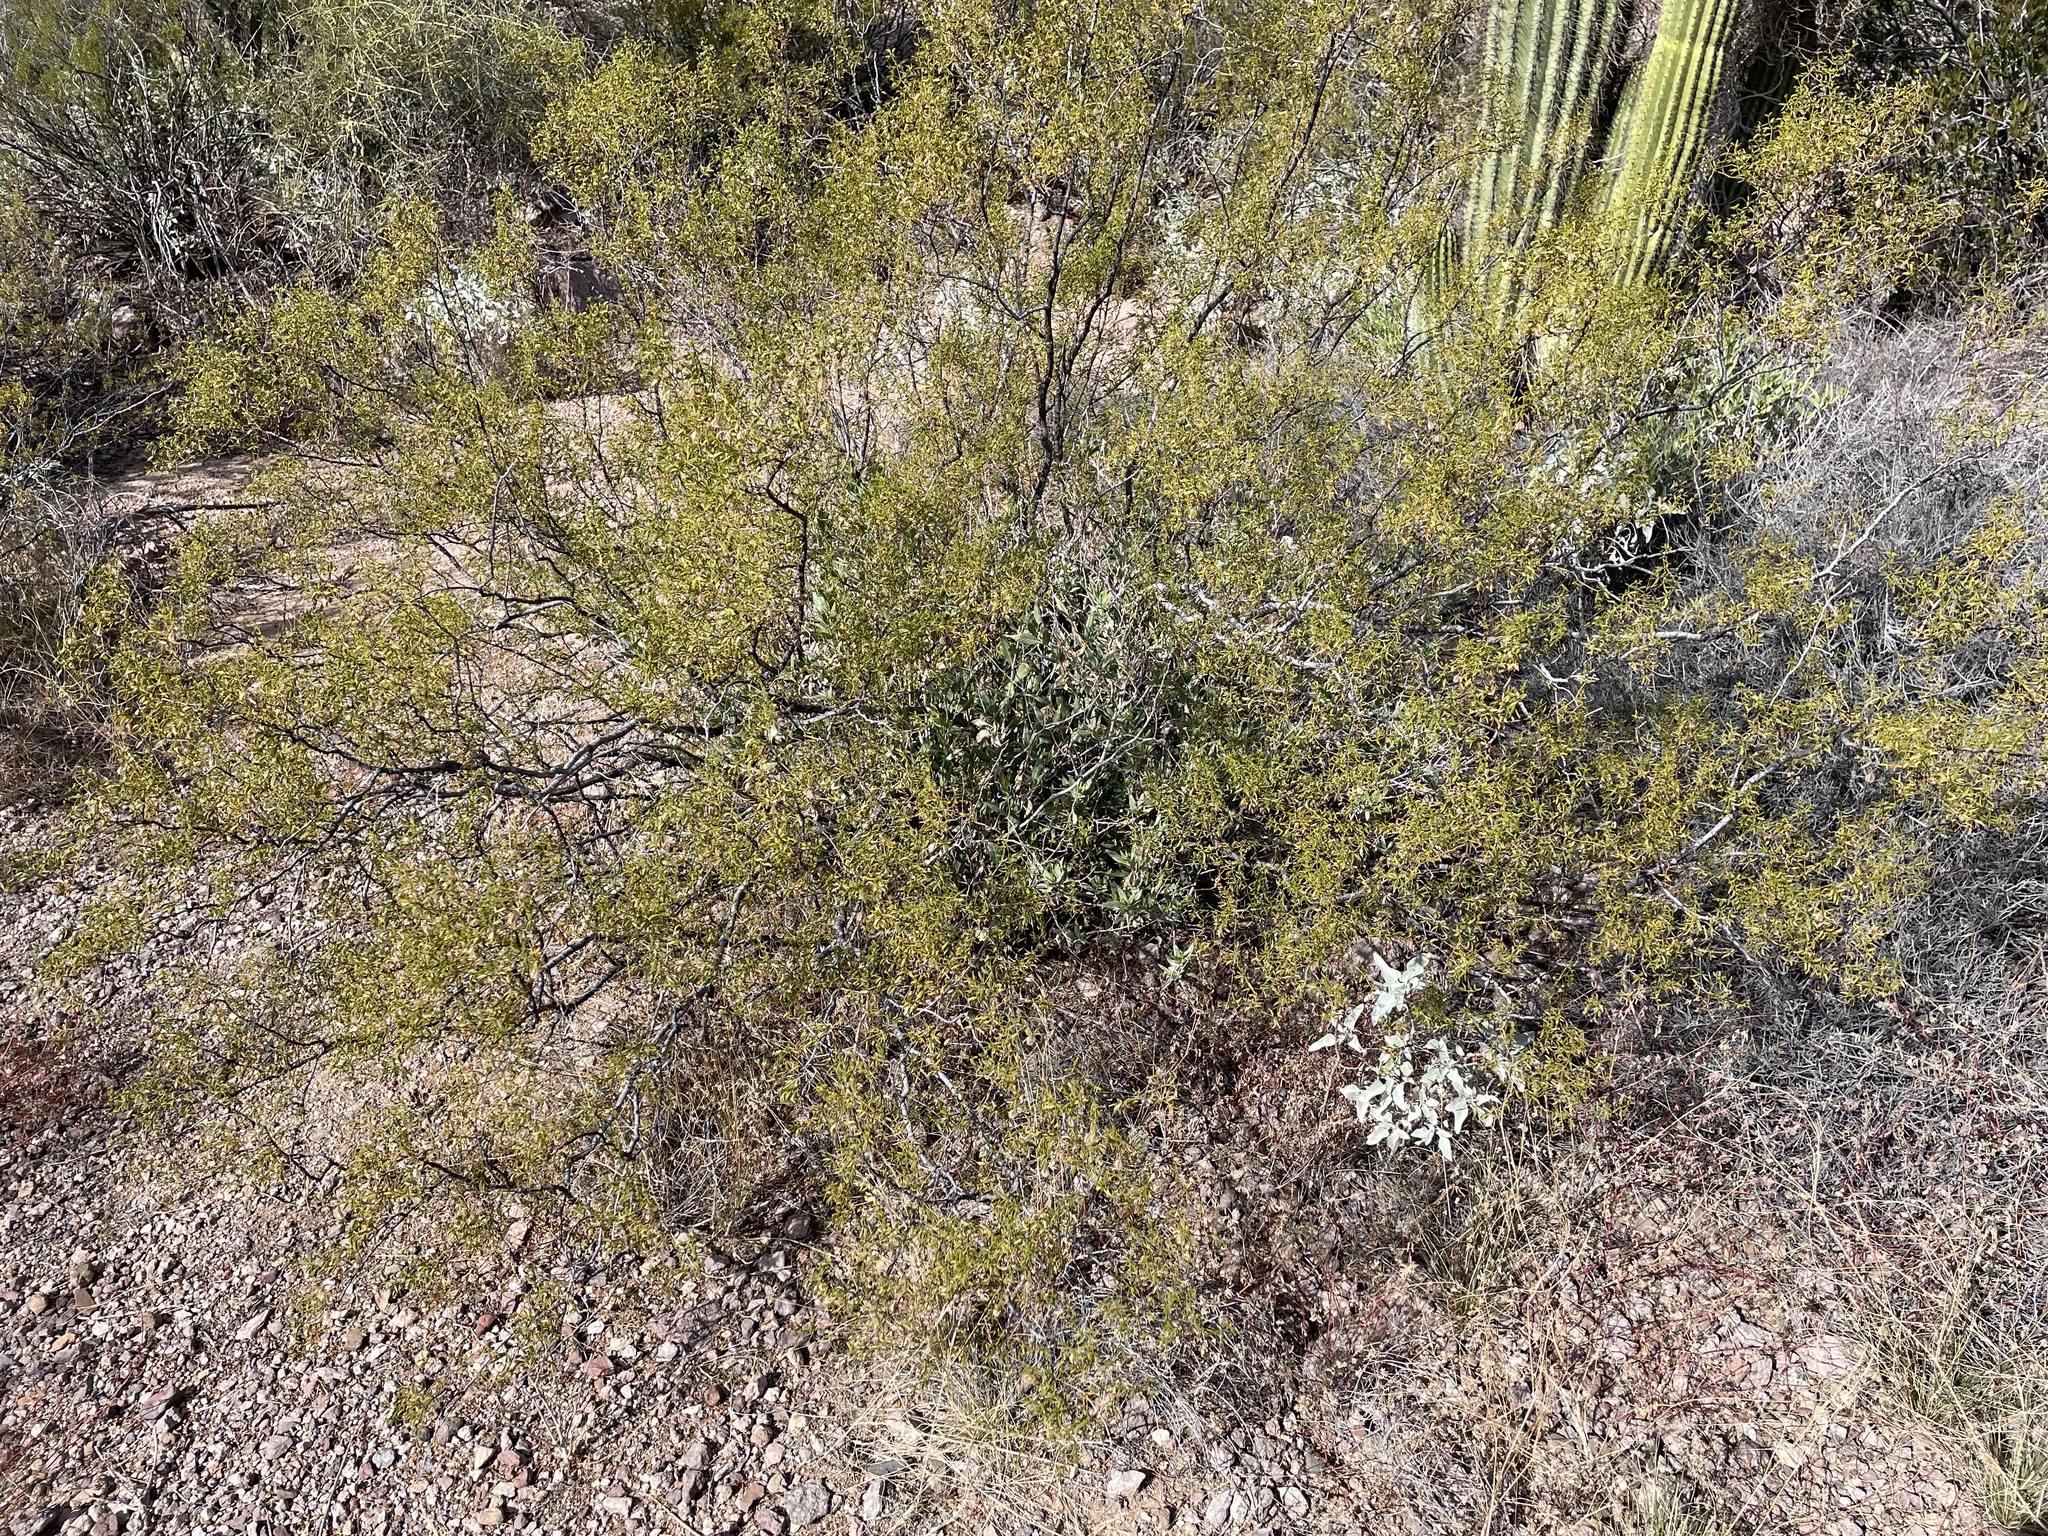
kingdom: Plantae
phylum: Tracheophyta
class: Magnoliopsida
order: Zygophyllales
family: Zygophyllaceae
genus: Larrea
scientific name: Larrea tridentata
